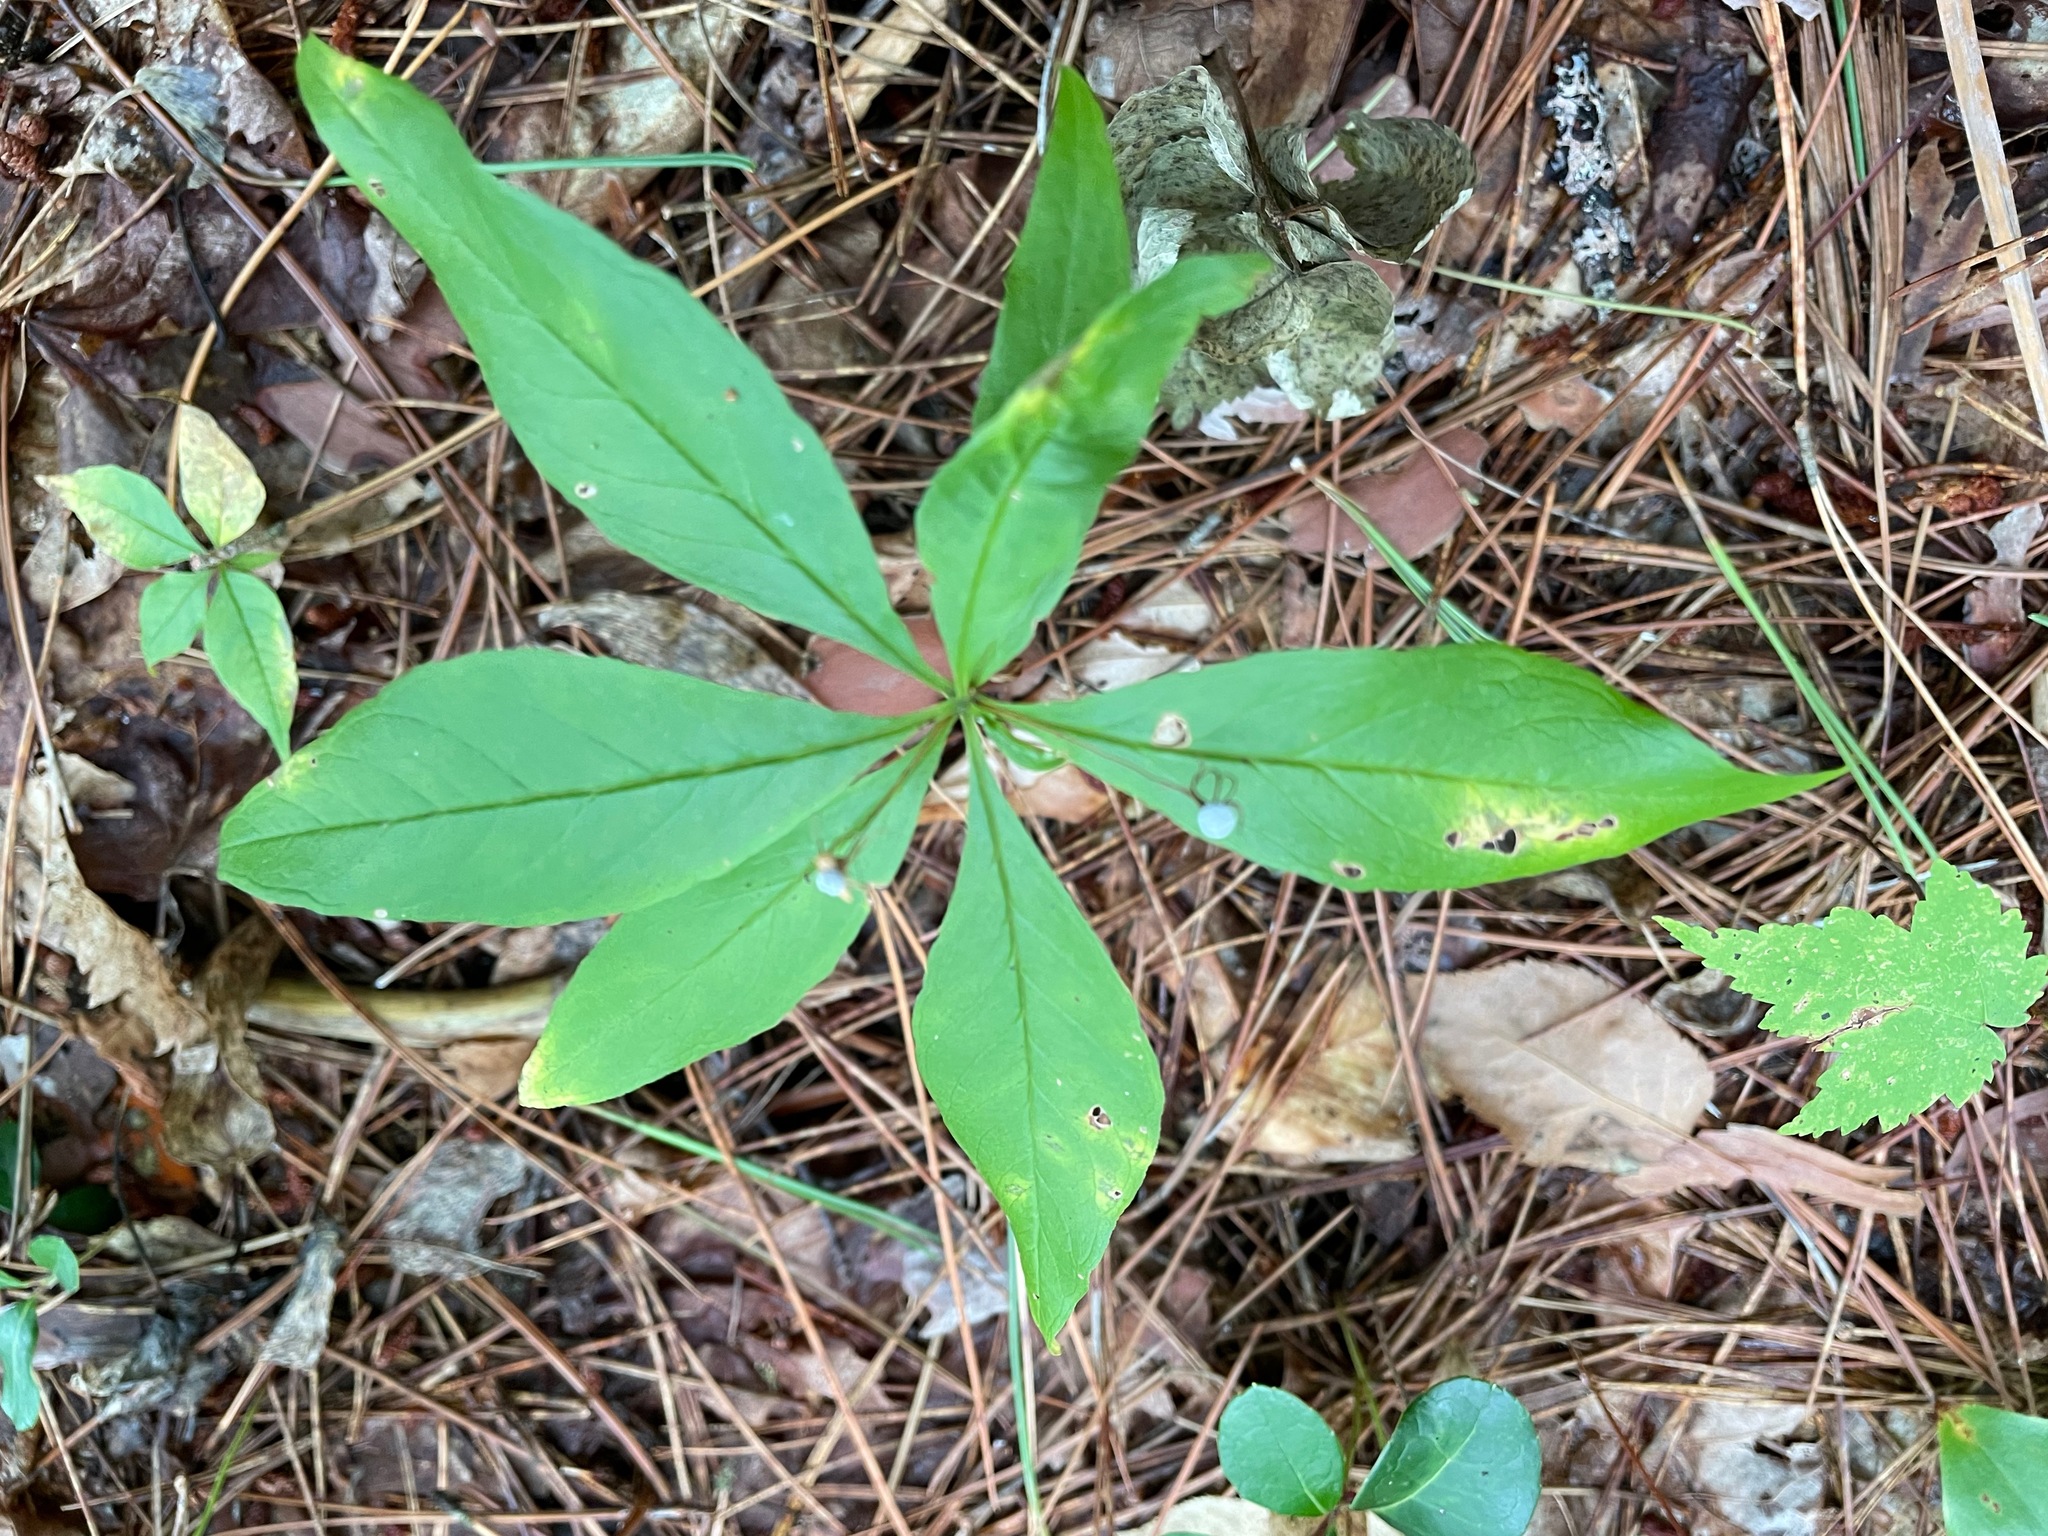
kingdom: Plantae
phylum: Tracheophyta
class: Magnoliopsida
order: Ericales
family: Primulaceae
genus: Lysimachia
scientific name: Lysimachia borealis
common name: American starflower
